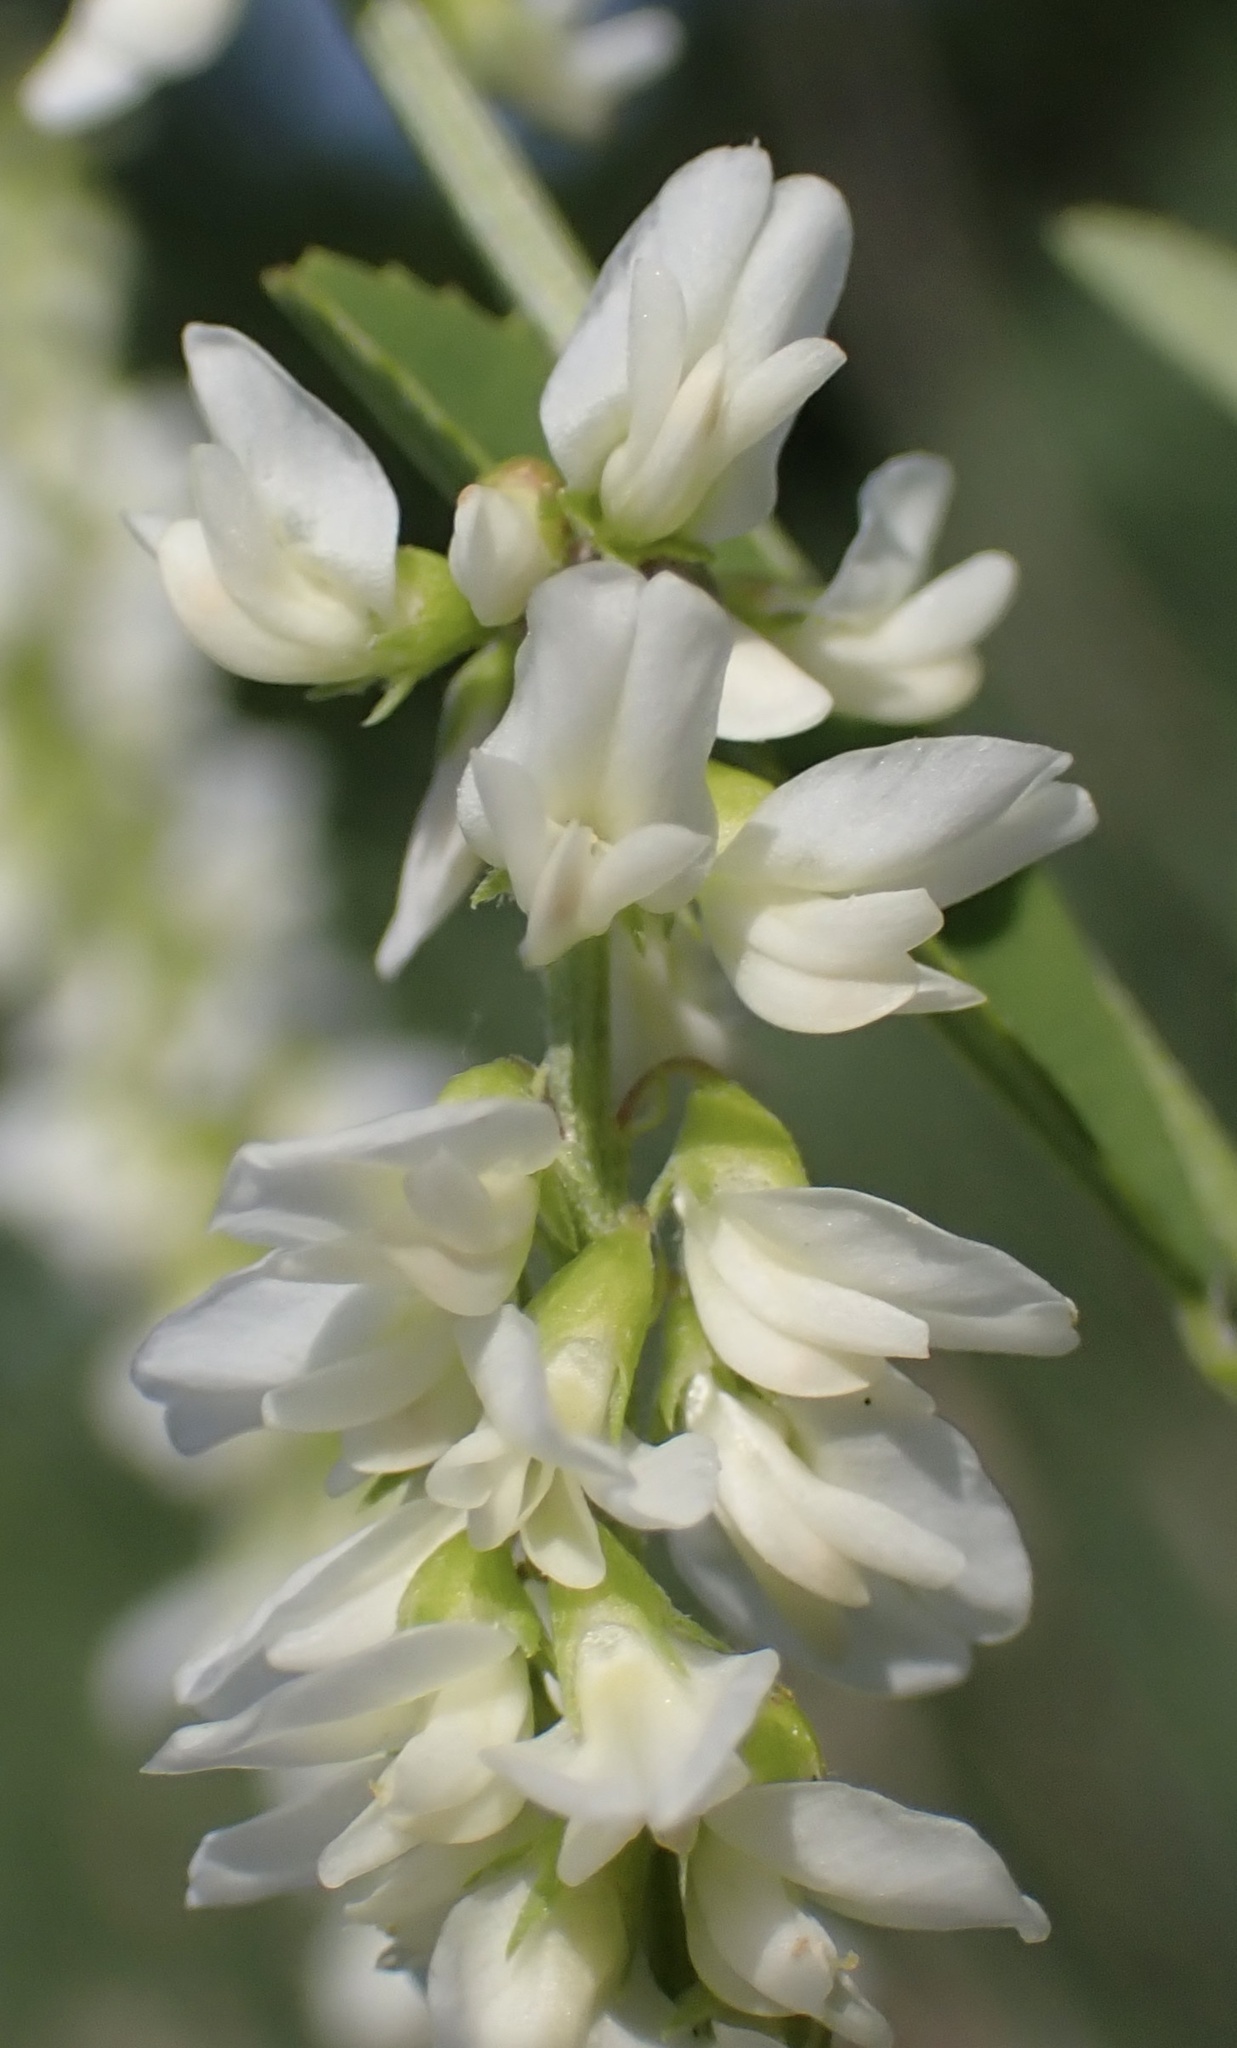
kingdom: Plantae
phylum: Tracheophyta
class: Magnoliopsida
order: Fabales
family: Fabaceae
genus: Melilotus
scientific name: Melilotus albus
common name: White melilot
